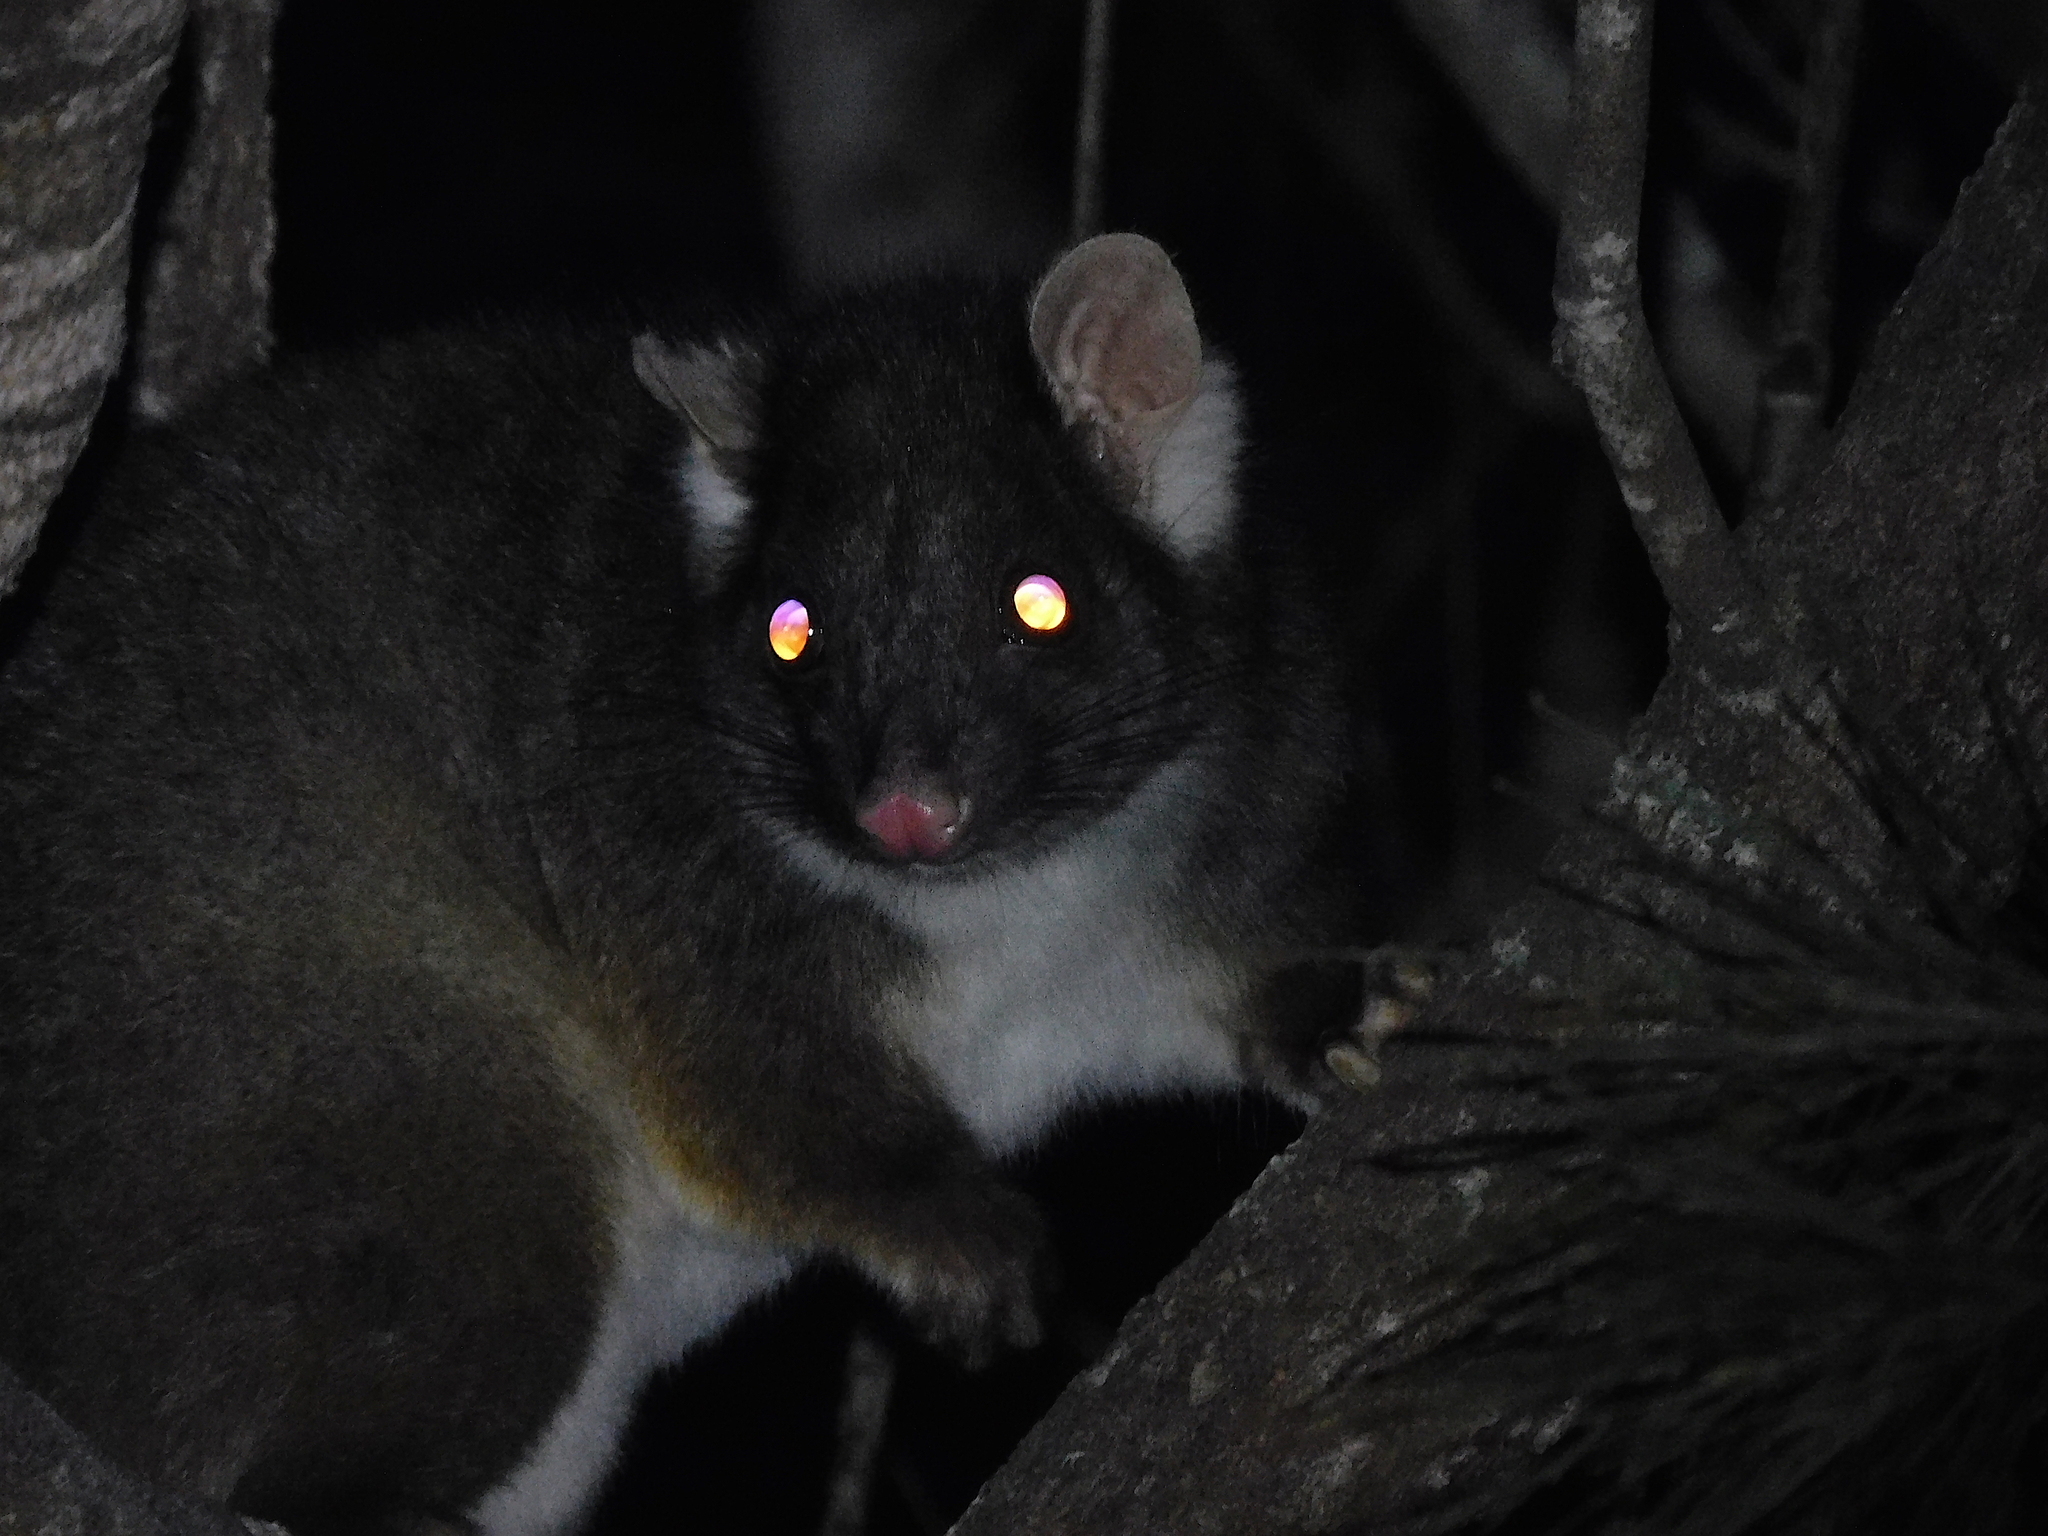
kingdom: Animalia
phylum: Chordata
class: Mammalia
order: Diprotodontia
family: Pseudocheiridae
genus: Pseudocheirus
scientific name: Pseudocheirus peregrinus
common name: Common ringtail possum
